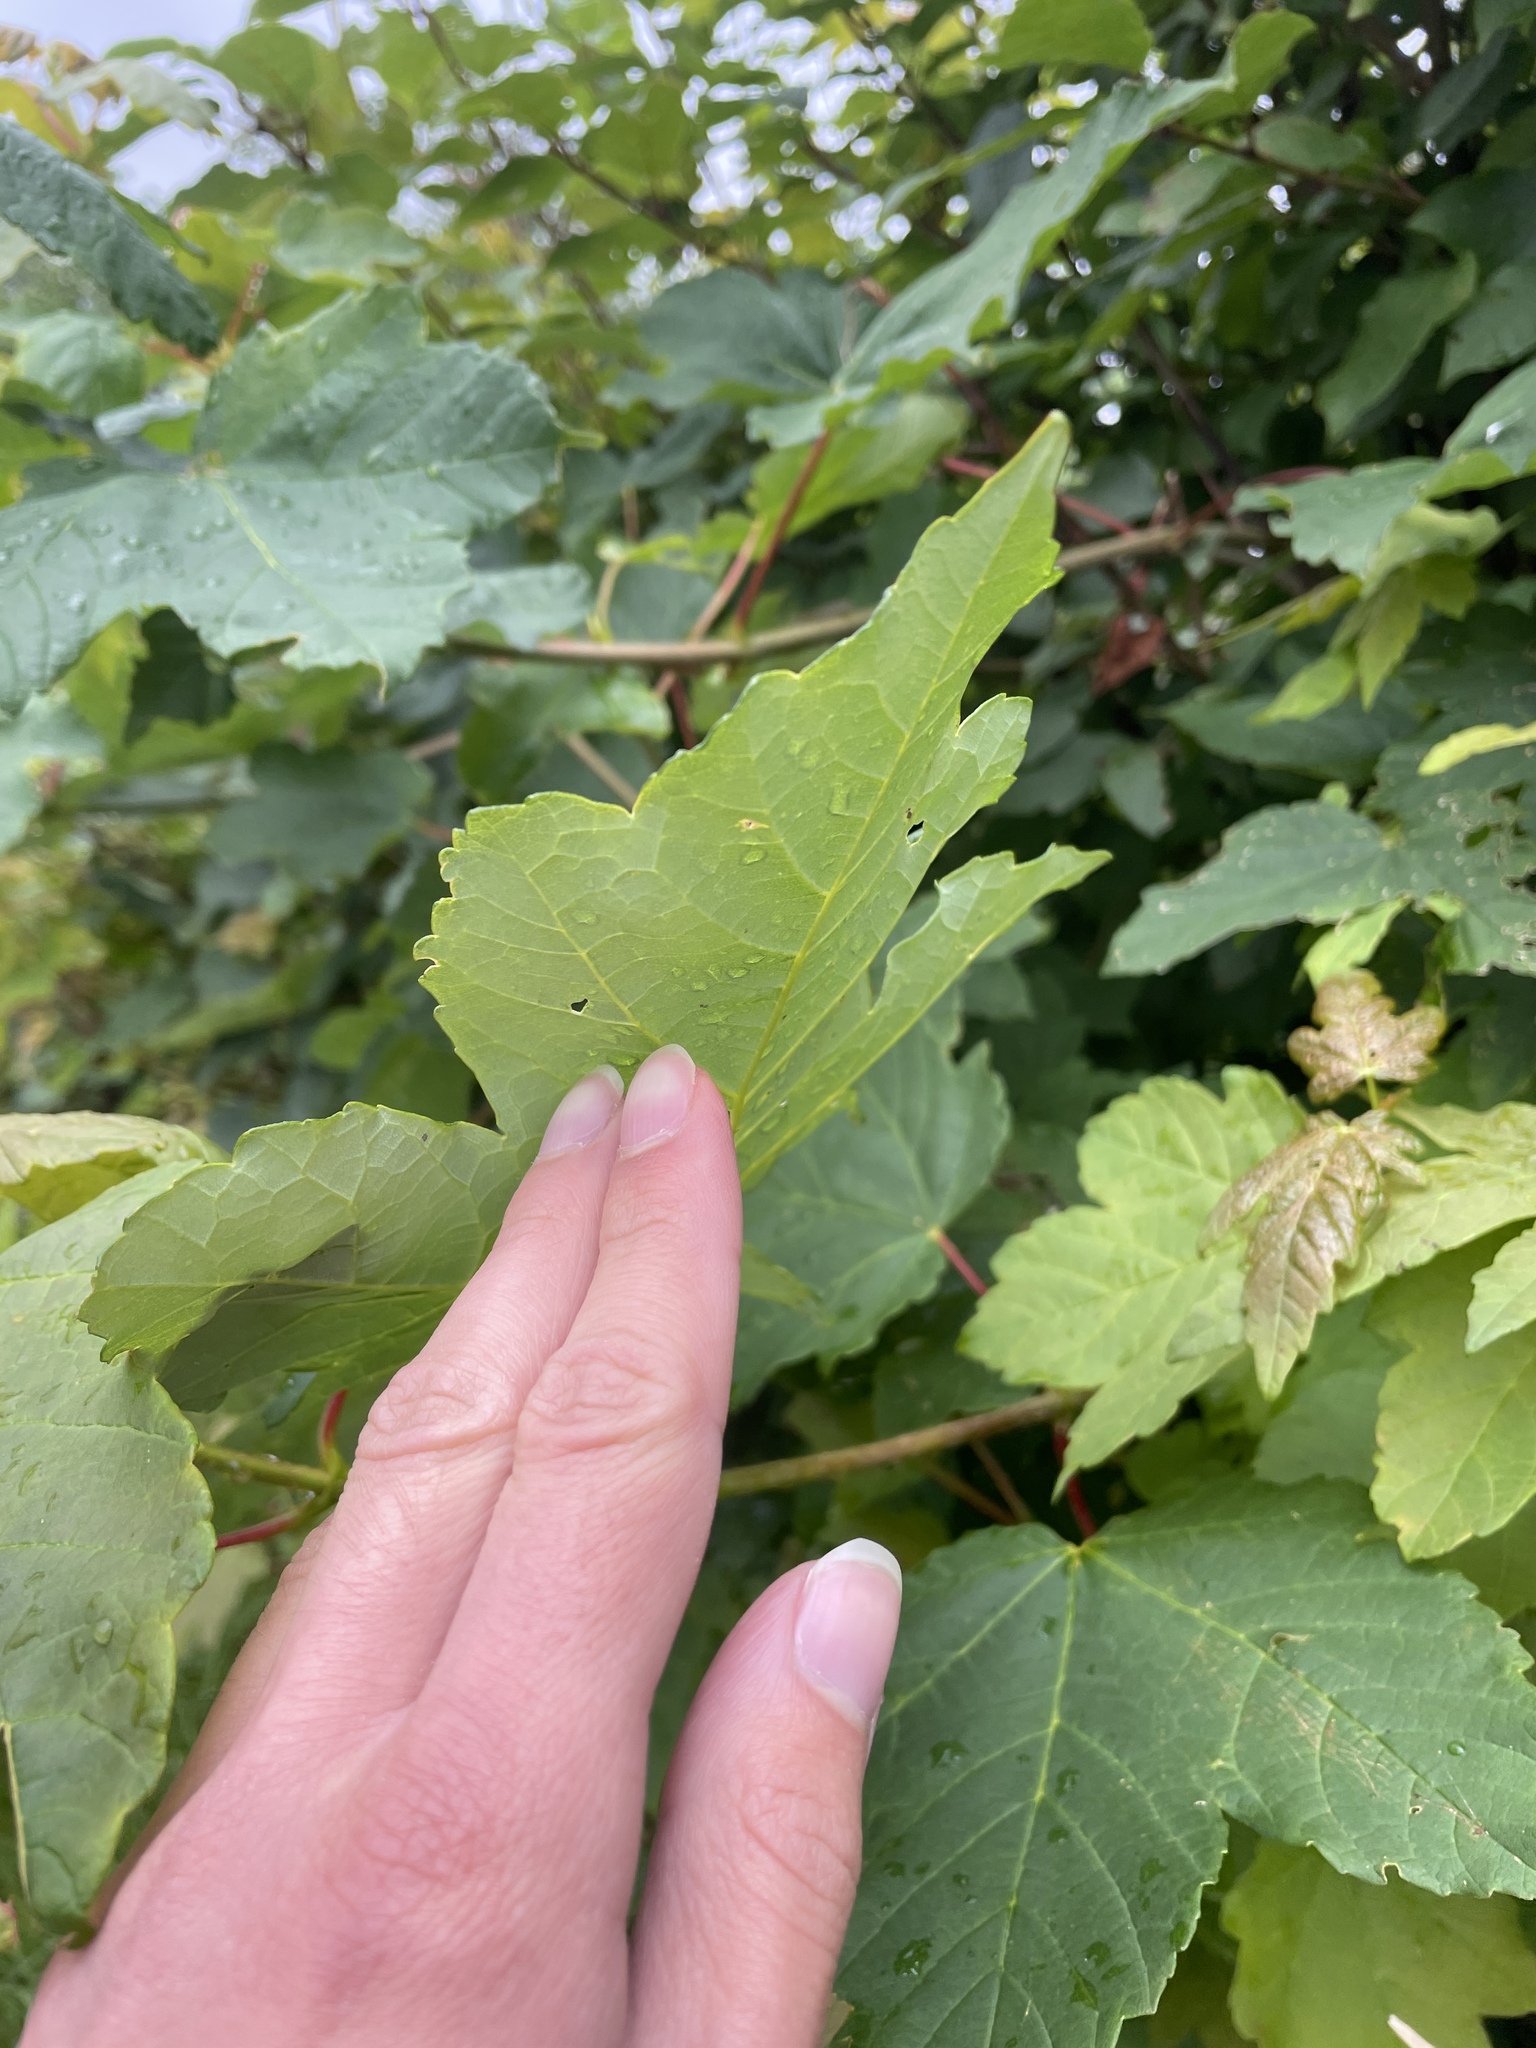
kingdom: Plantae
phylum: Tracheophyta
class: Magnoliopsida
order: Sapindales
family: Sapindaceae
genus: Acer
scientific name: Acer pseudoplatanus
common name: Sycamore
